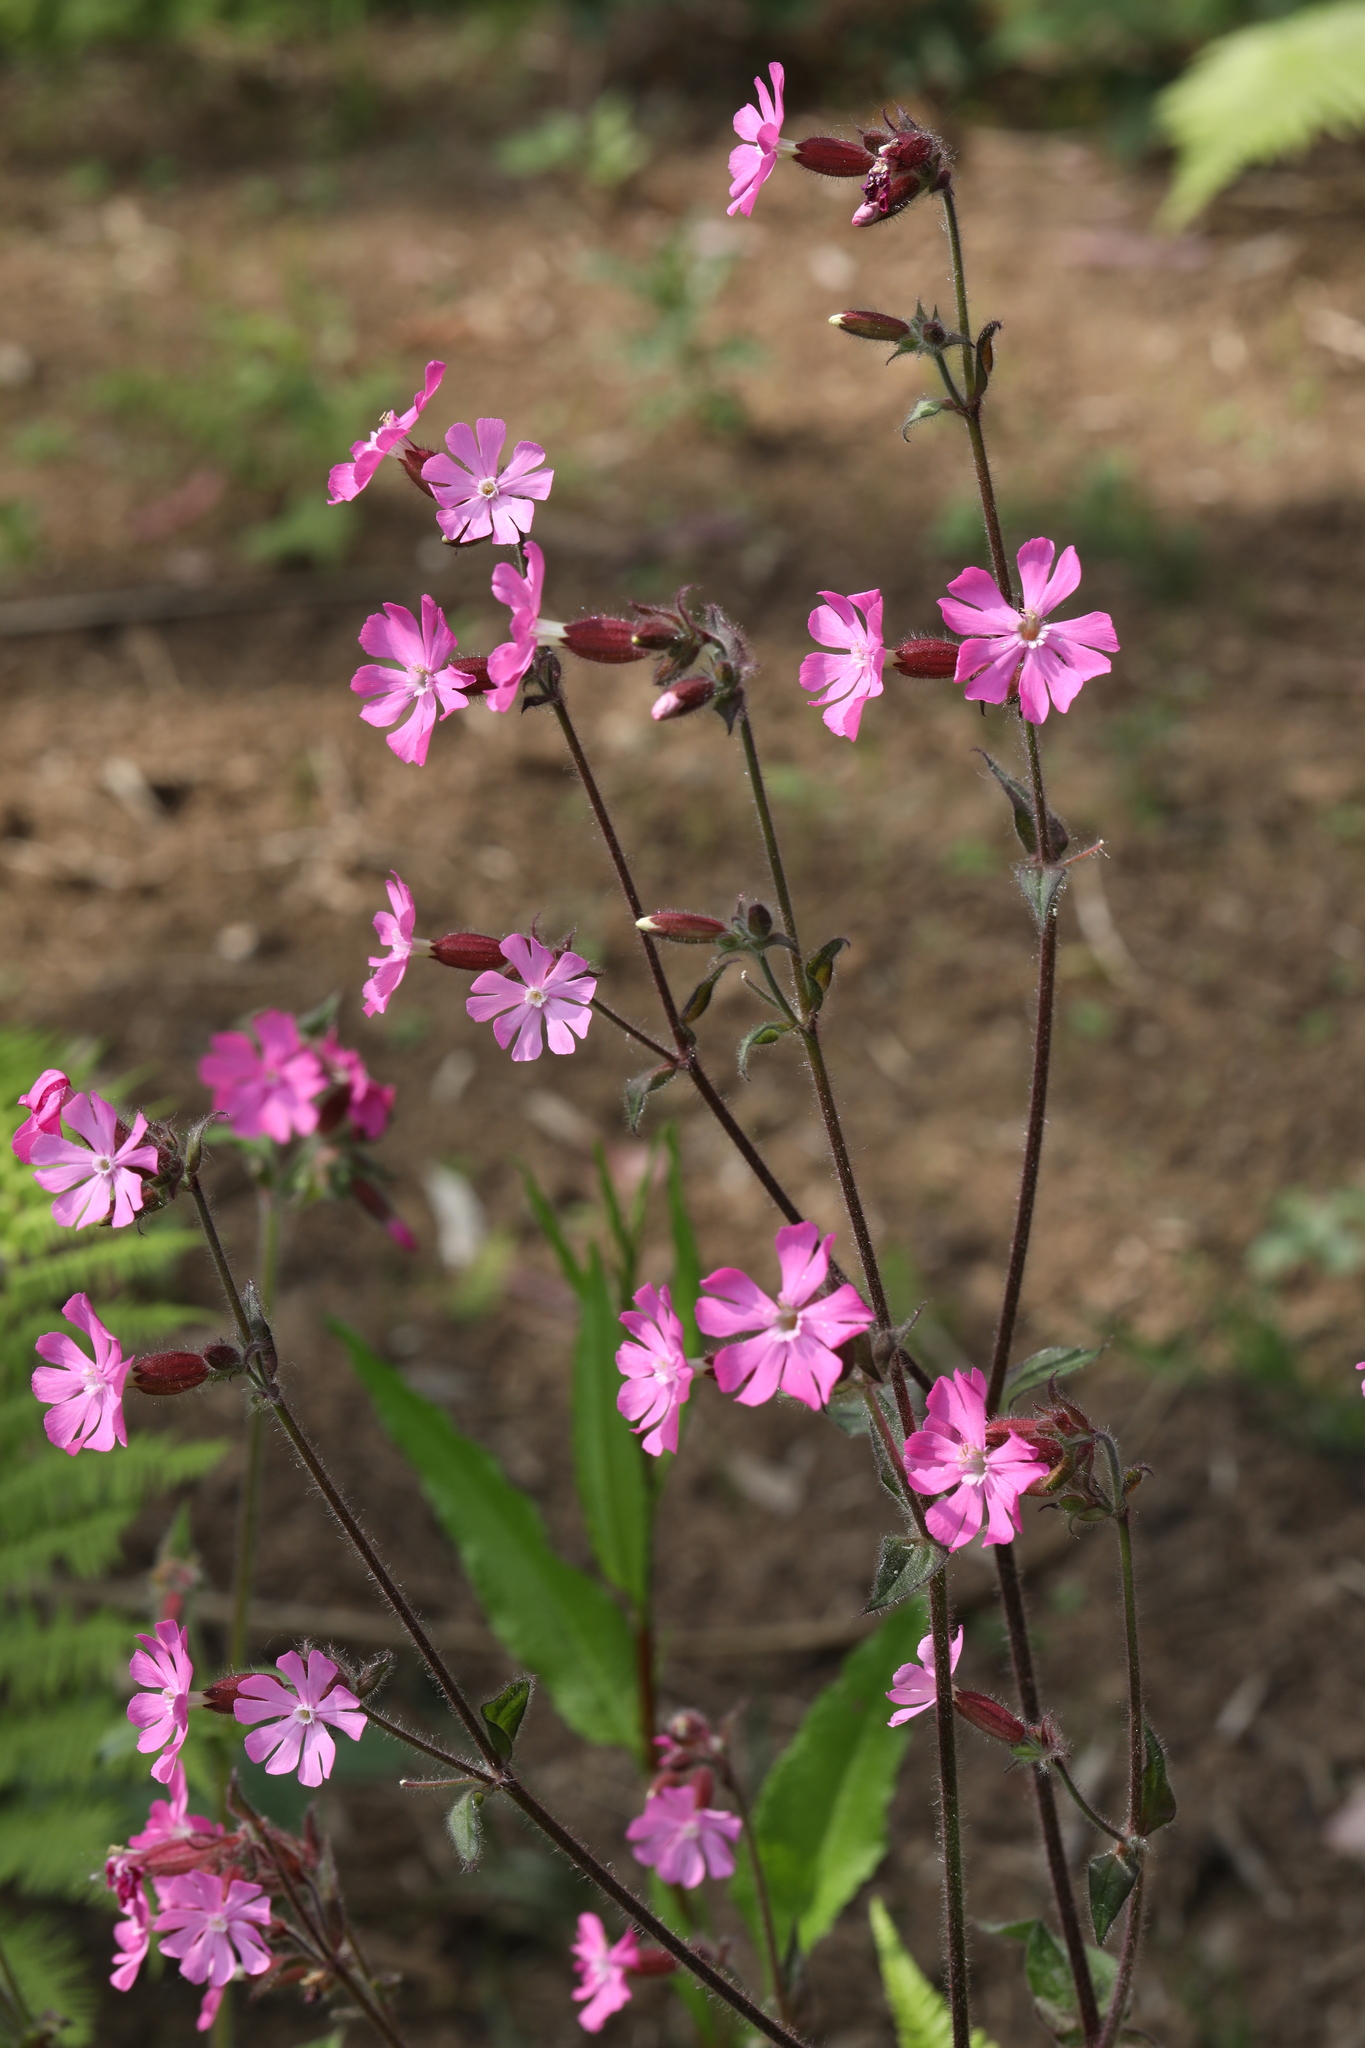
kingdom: Plantae
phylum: Tracheophyta
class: Magnoliopsida
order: Caryophyllales
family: Caryophyllaceae
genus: Silene
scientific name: Silene dioica
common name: Red campion
